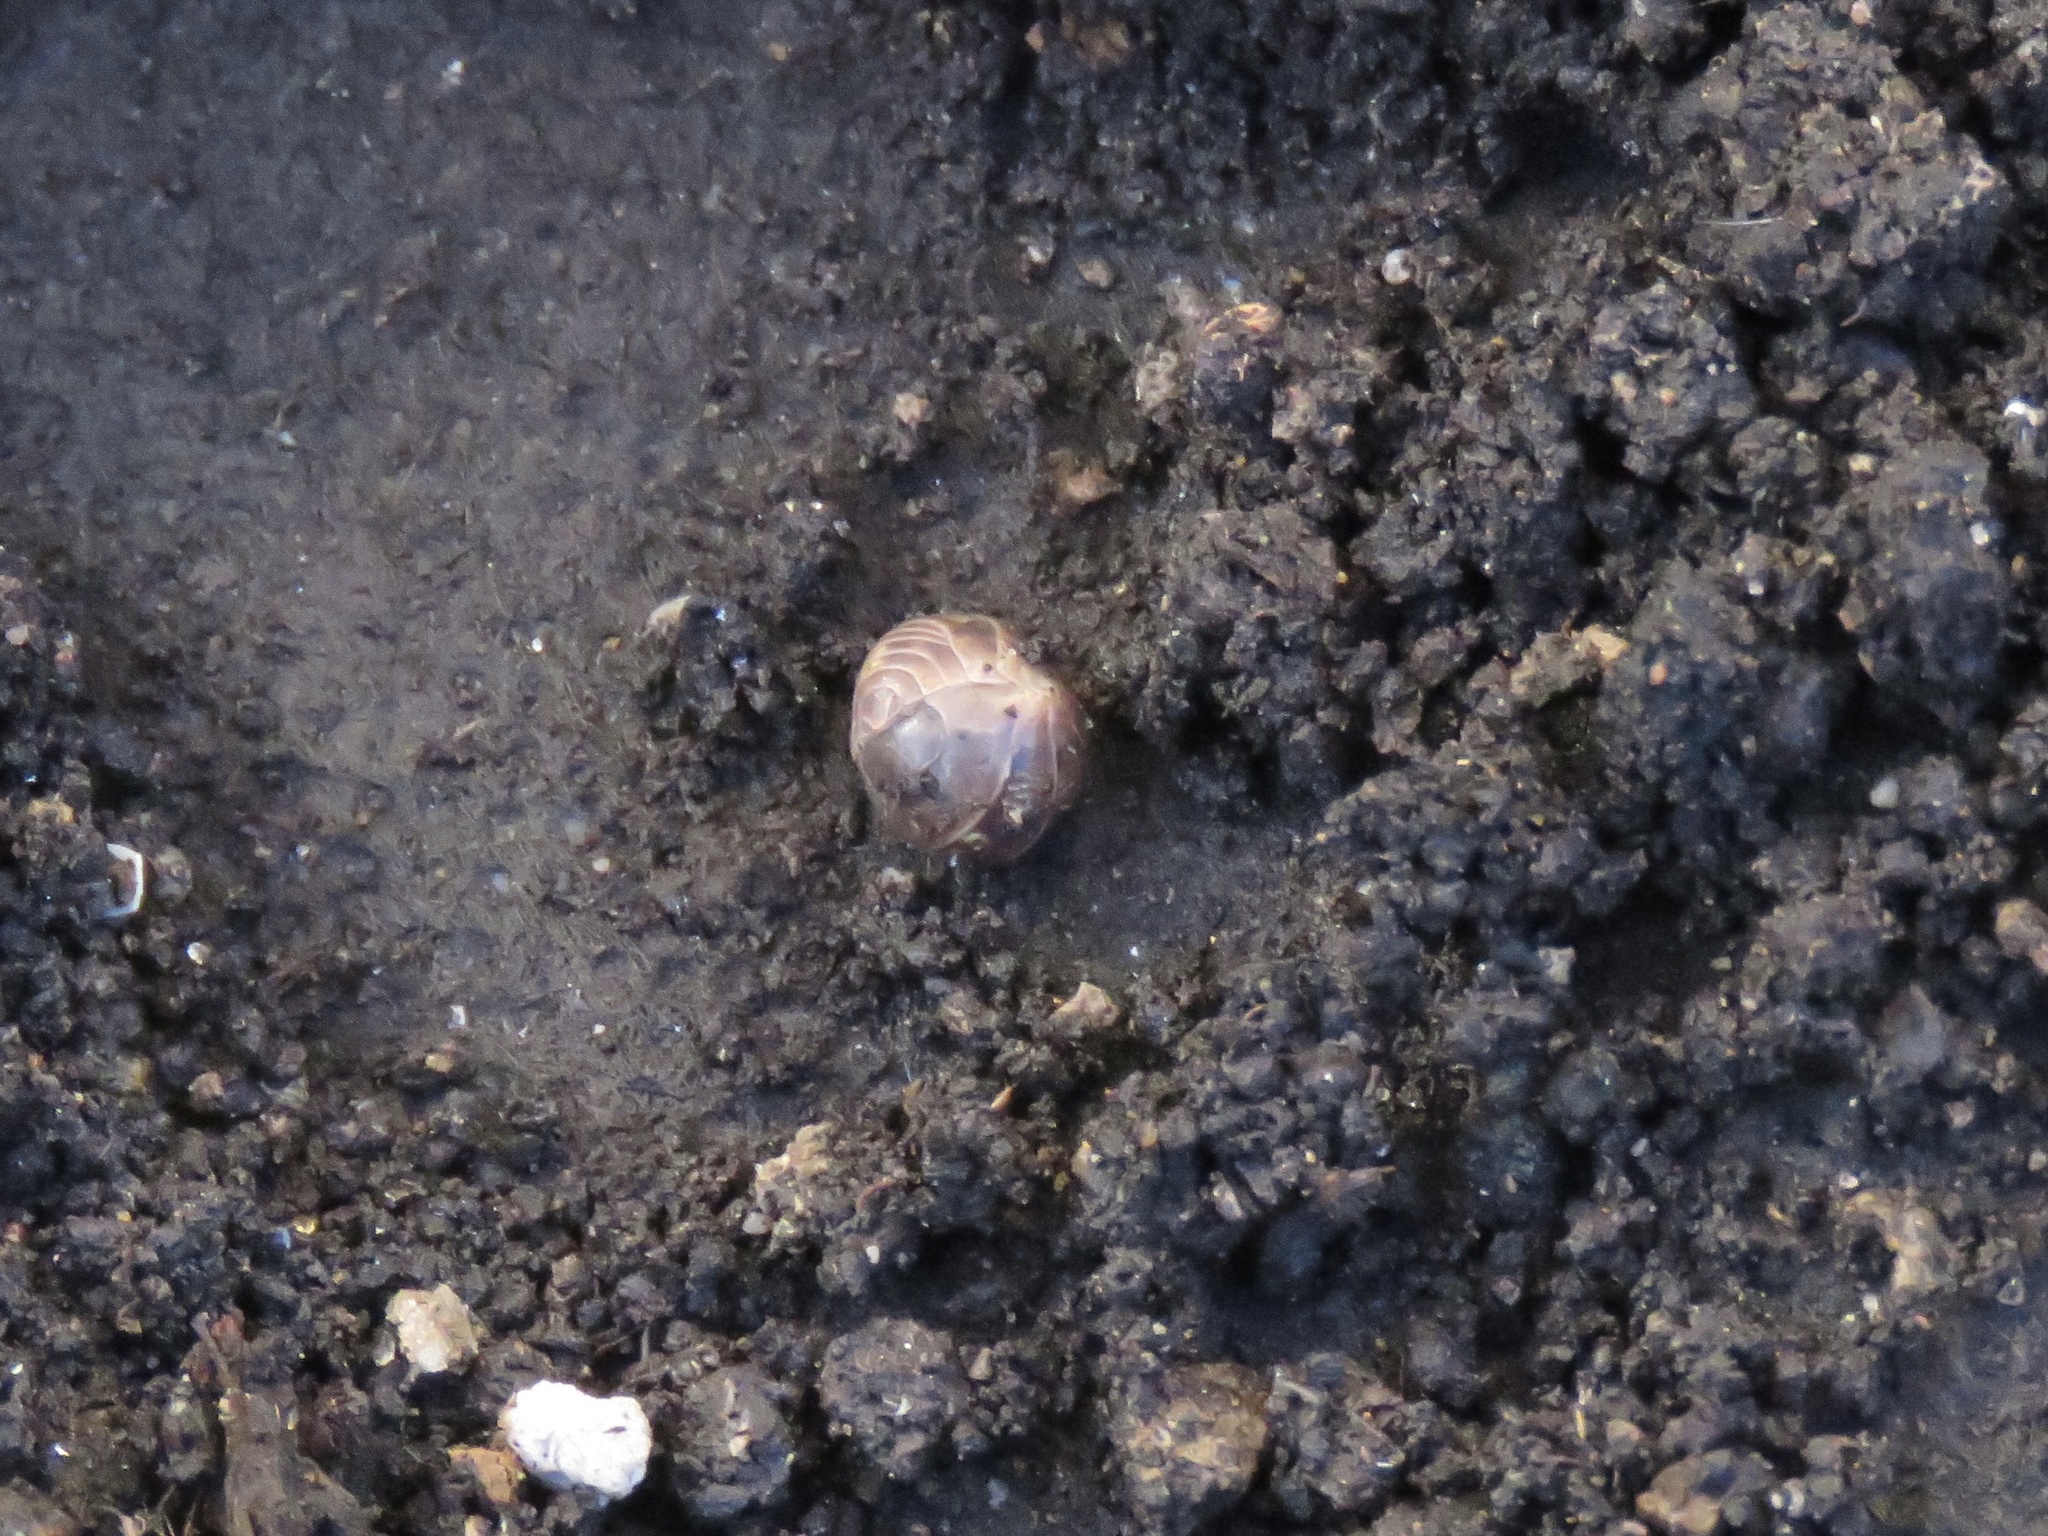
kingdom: Animalia
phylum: Arthropoda
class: Malacostraca
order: Isopoda
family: Armadillidiidae
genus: Armadillidium
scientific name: Armadillidium vulgare
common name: Common pill woodlouse
